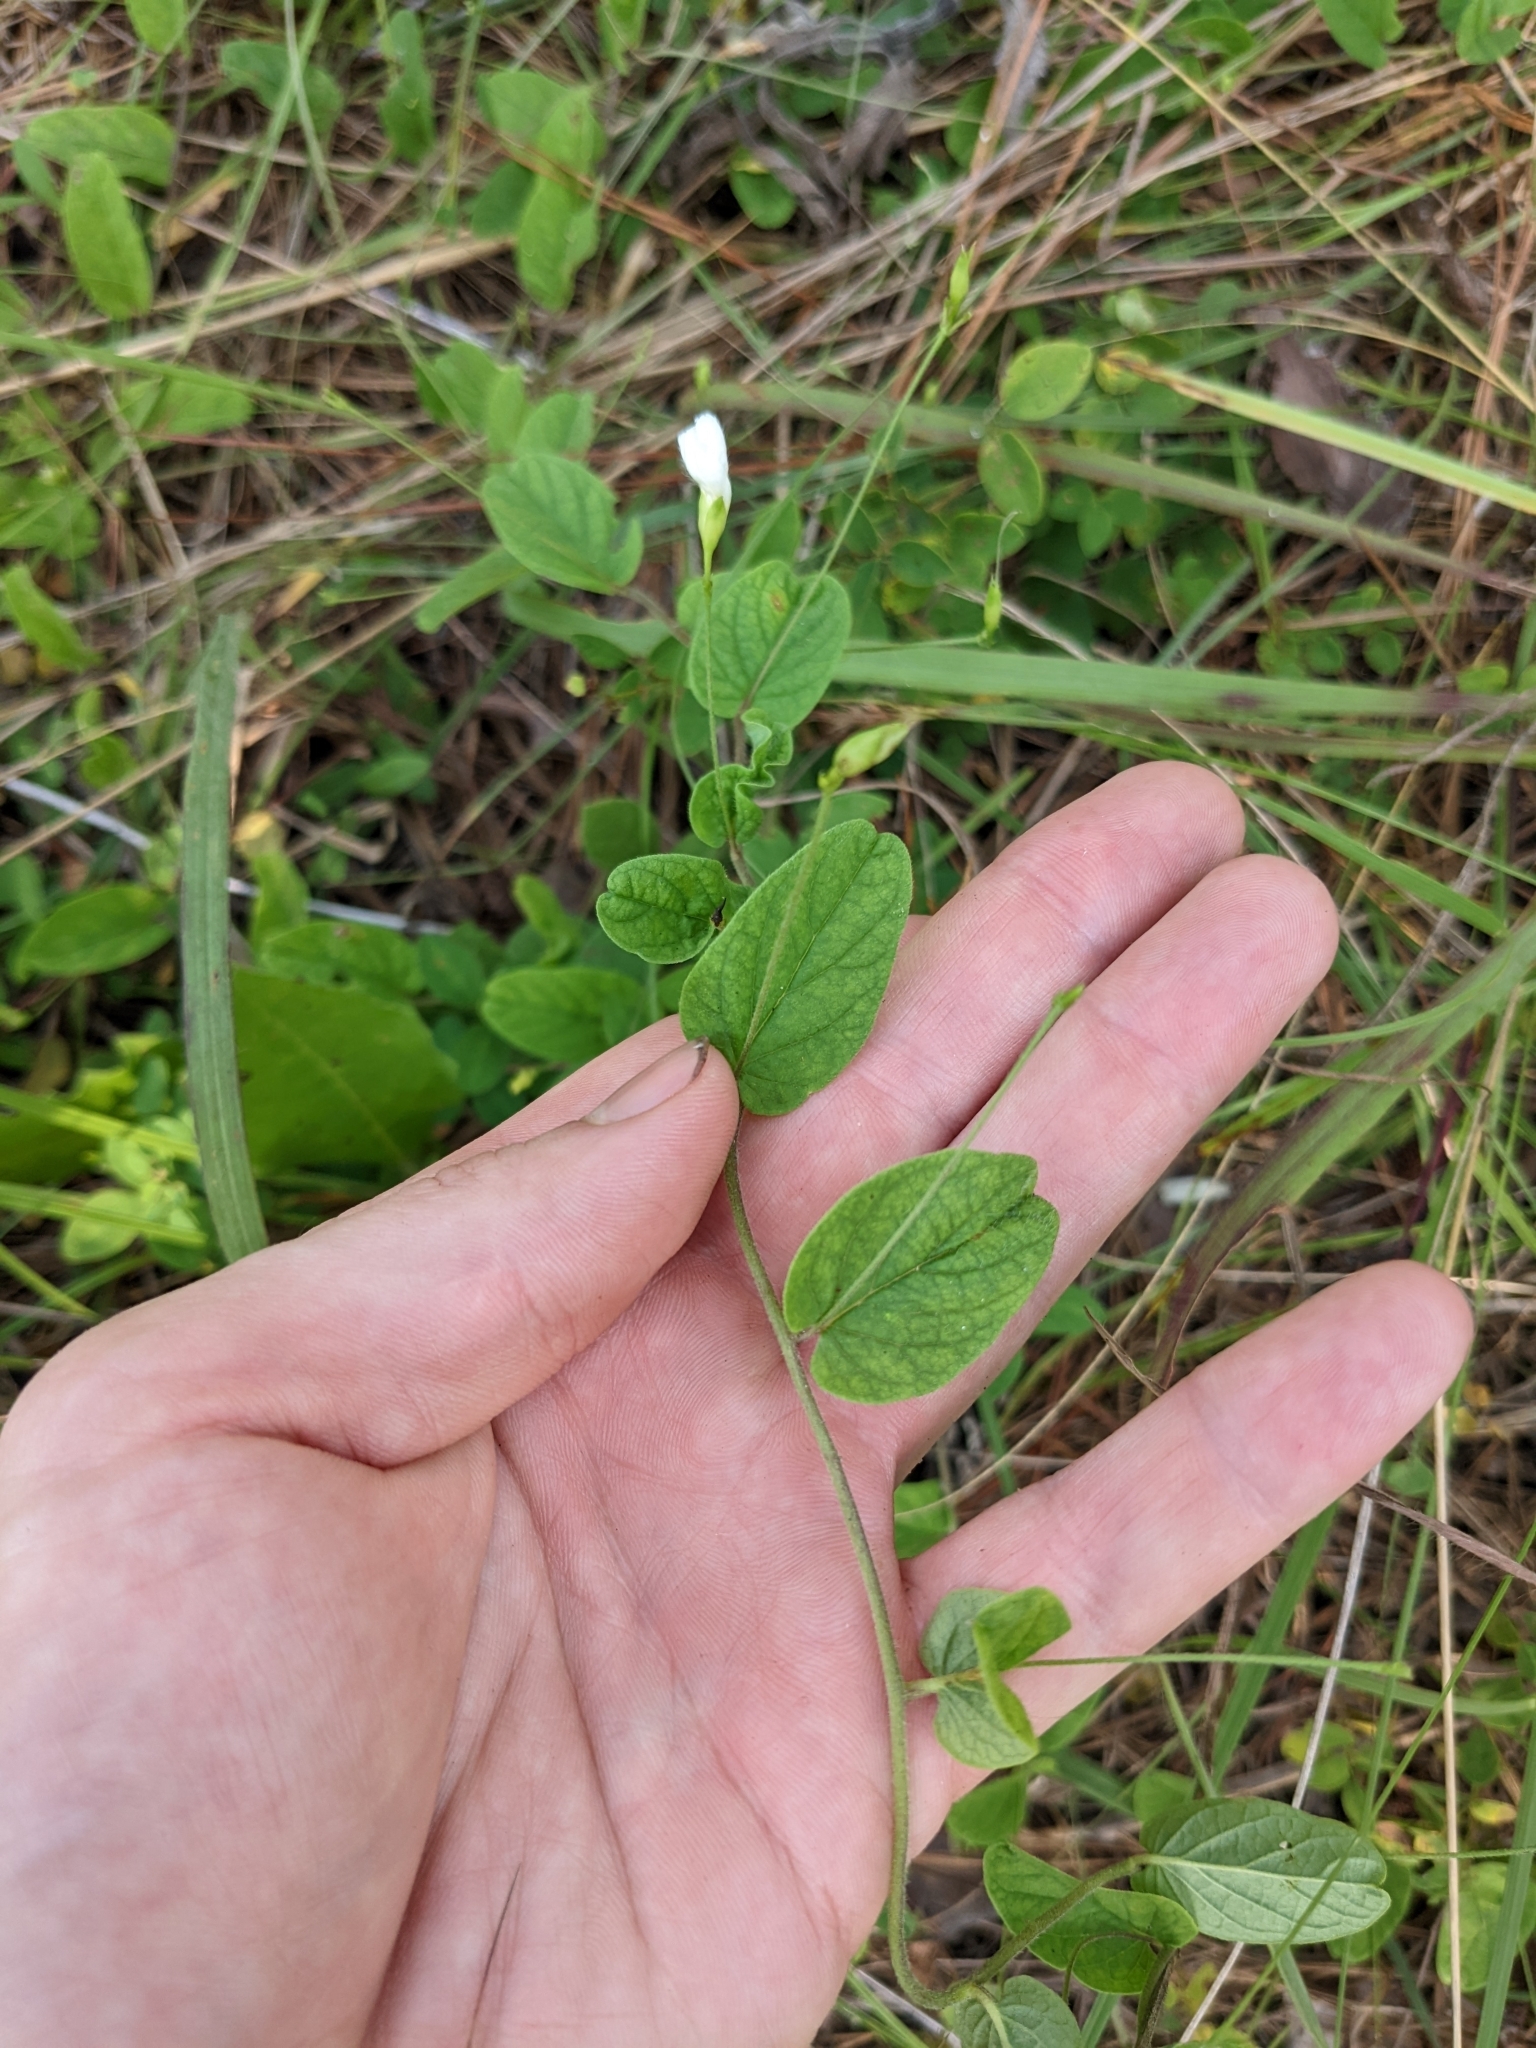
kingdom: Plantae
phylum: Tracheophyta
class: Magnoliopsida
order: Solanales
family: Convolvulaceae
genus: Stylisma
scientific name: Stylisma humistrata
